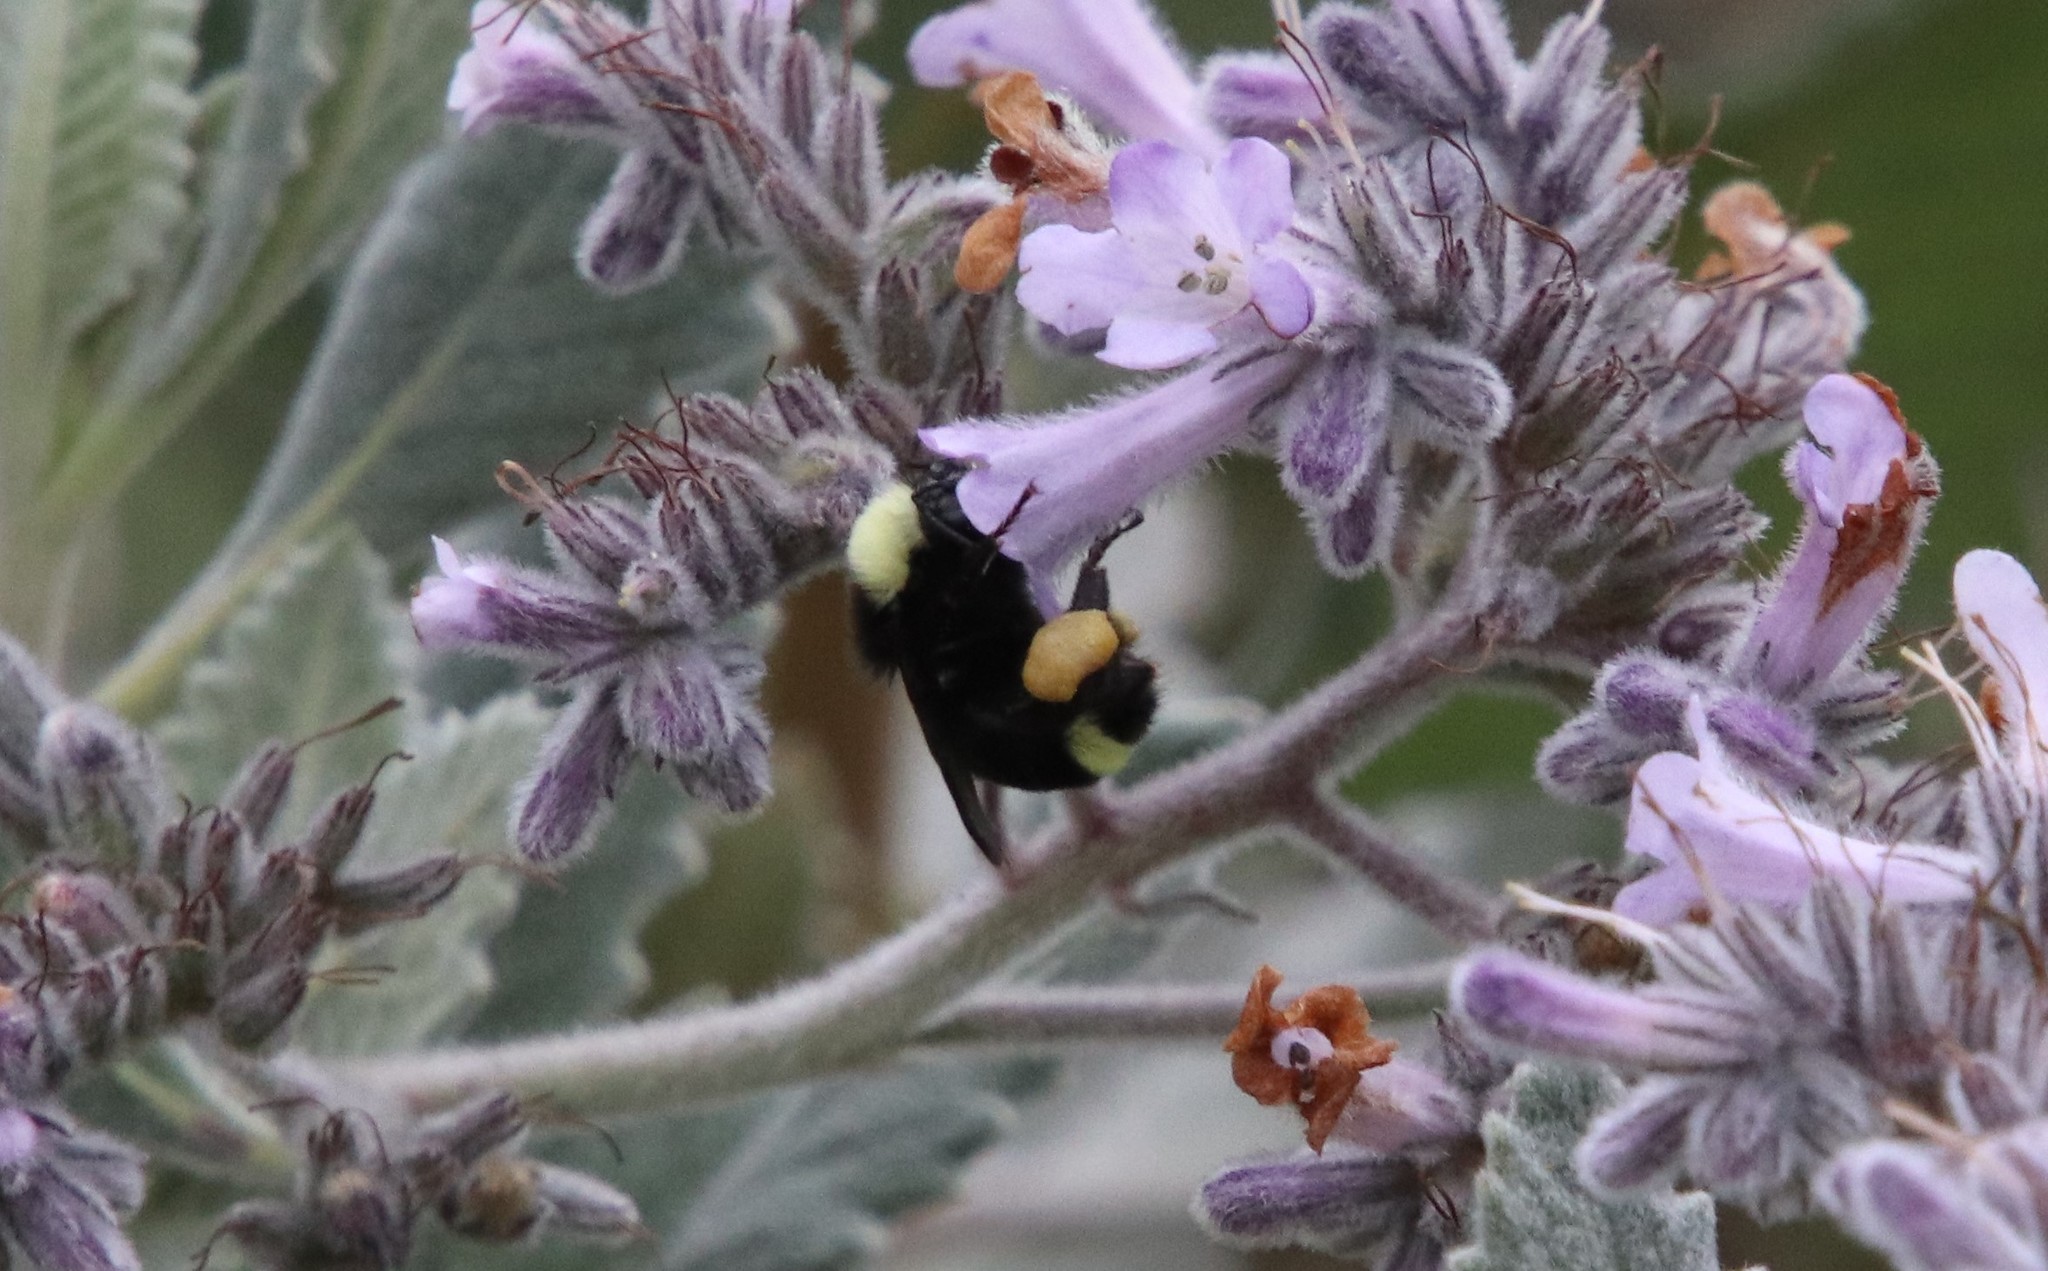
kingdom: Animalia
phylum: Arthropoda
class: Insecta
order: Hymenoptera
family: Apidae
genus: Bombus
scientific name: Bombus vosnesenskii
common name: Vosnesensky bumble bee
